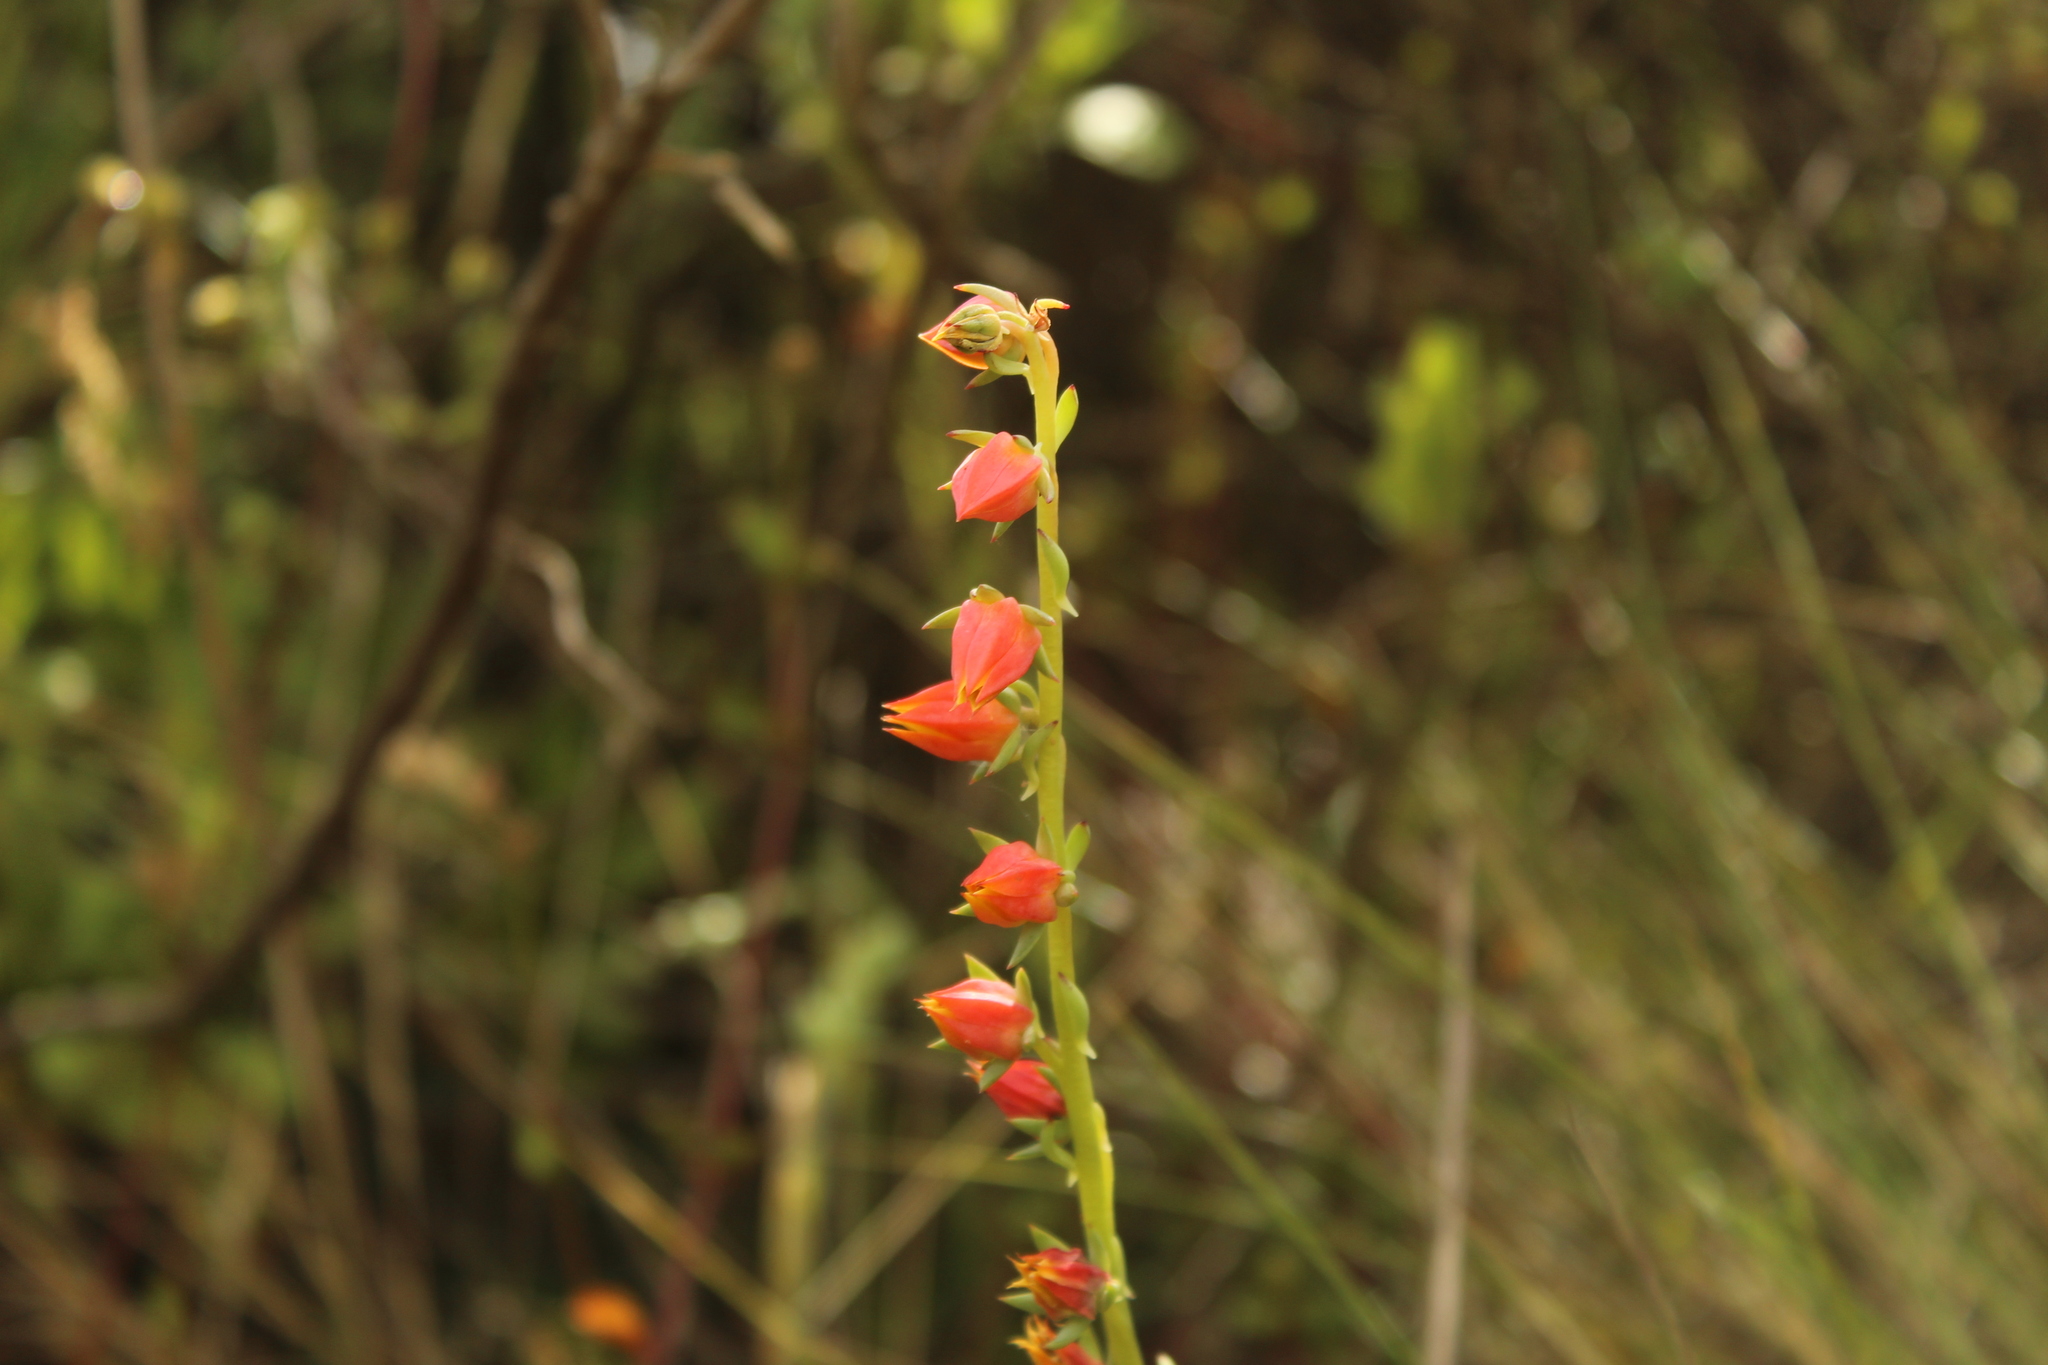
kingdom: Plantae
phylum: Tracheophyta
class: Magnoliopsida
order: Saxifragales
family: Crassulaceae
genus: Echeveria
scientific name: Echeveria bicolor
